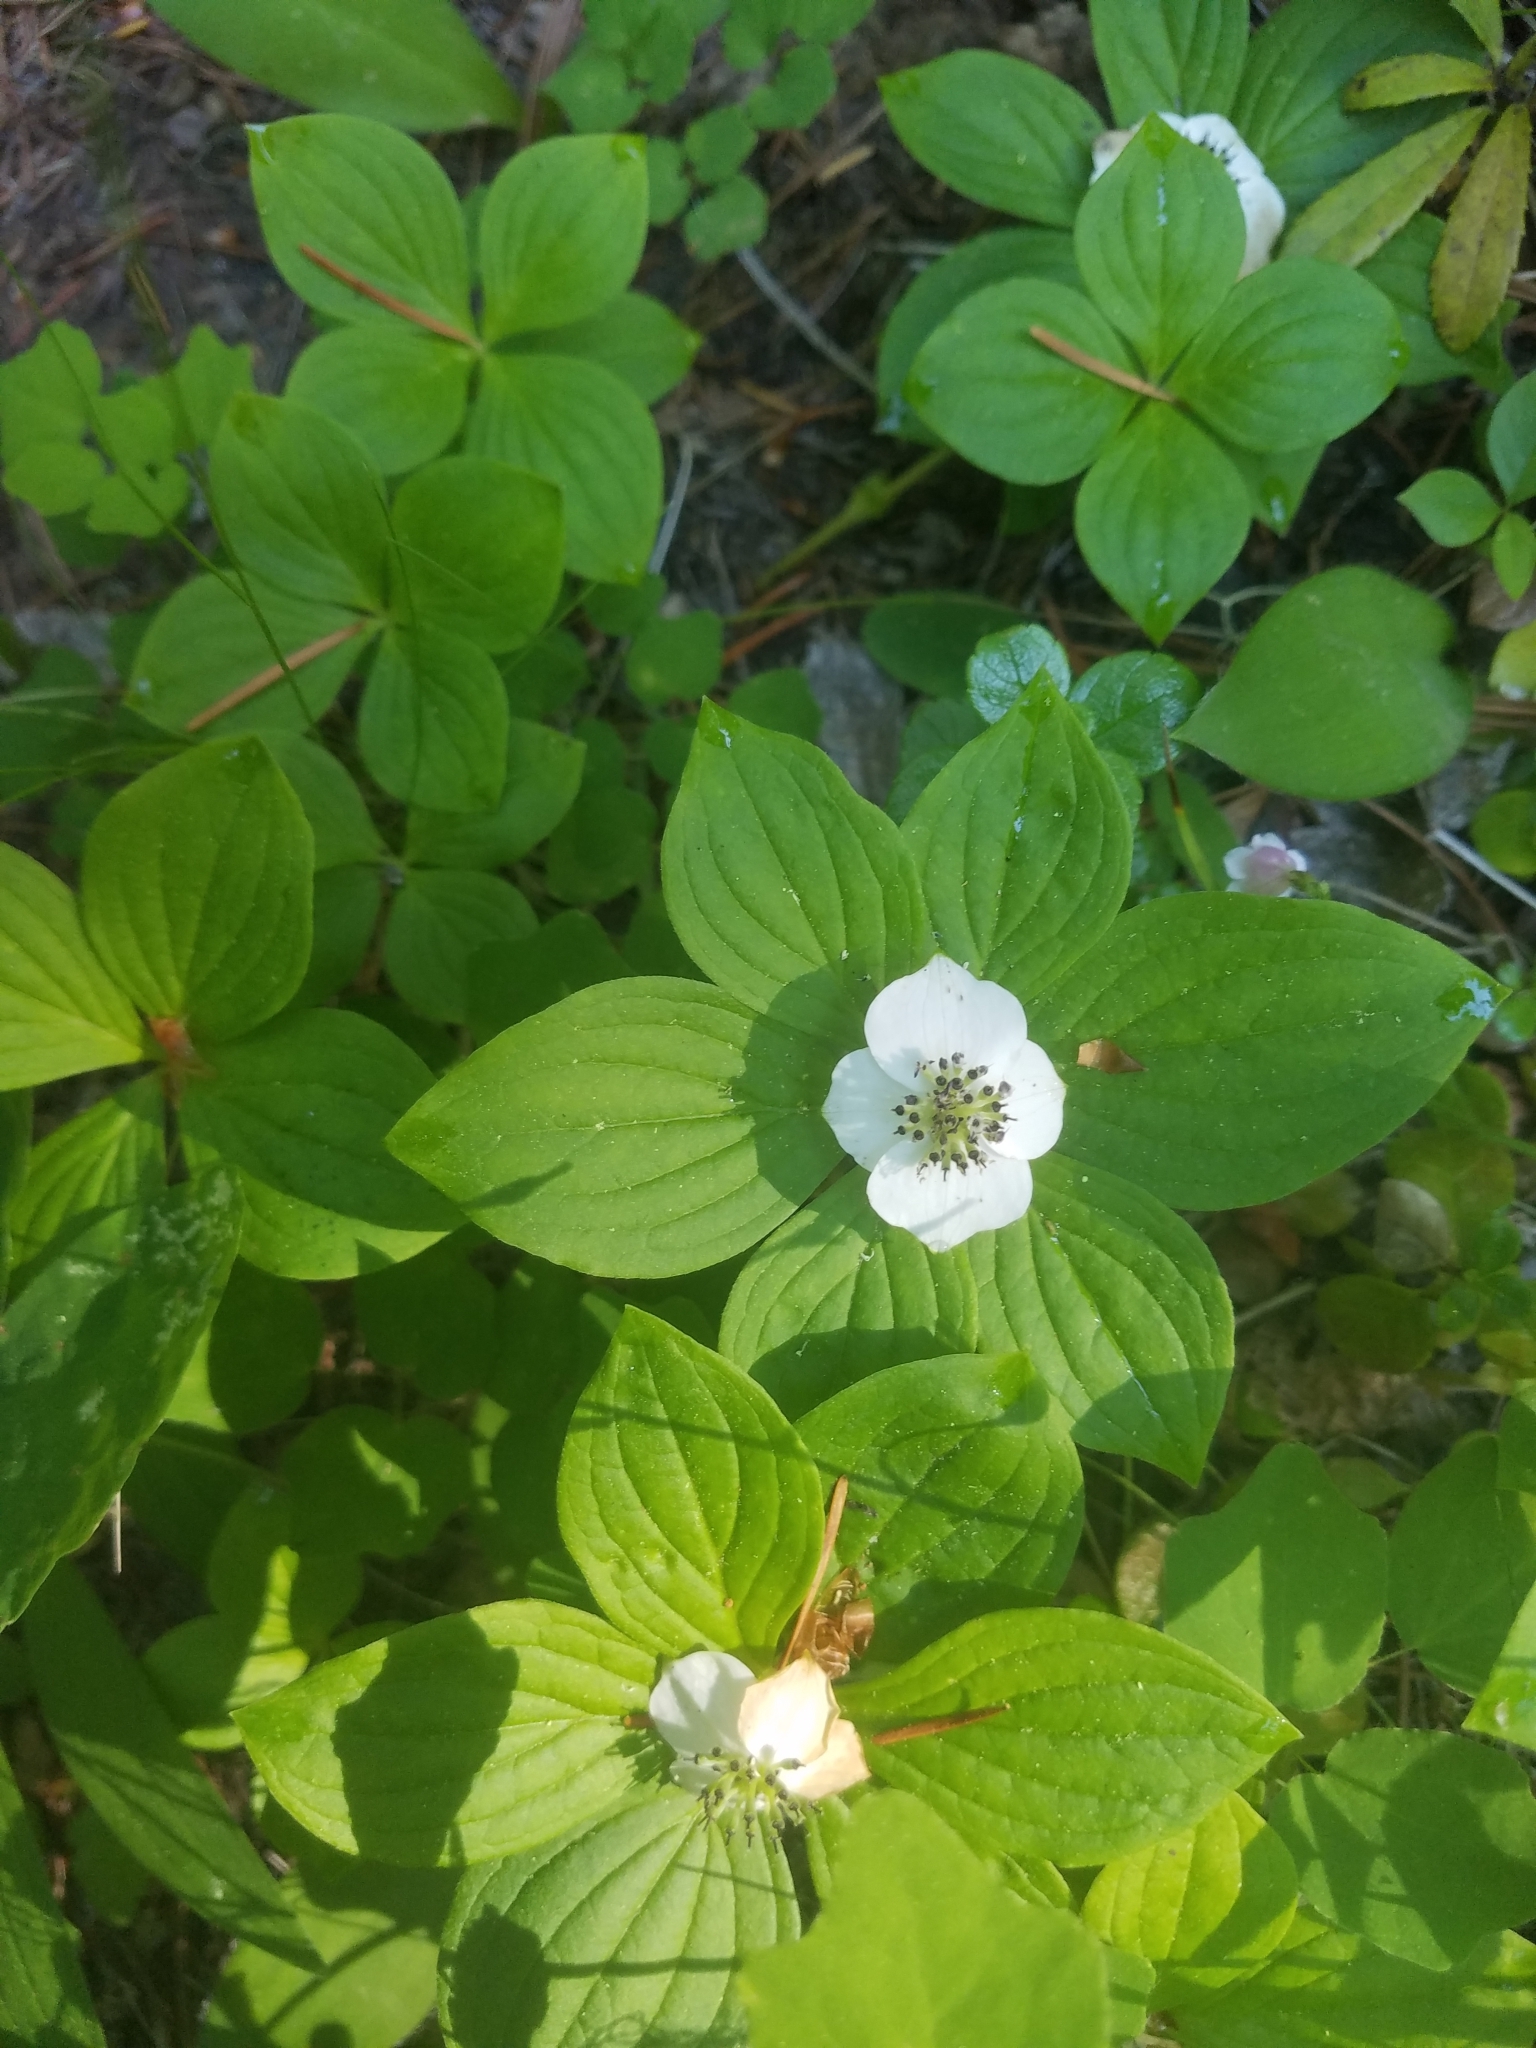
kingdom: Plantae
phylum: Tracheophyta
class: Magnoliopsida
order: Cornales
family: Cornaceae
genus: Cornus
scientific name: Cornus unalaschkensis
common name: Alaska bunchberry
